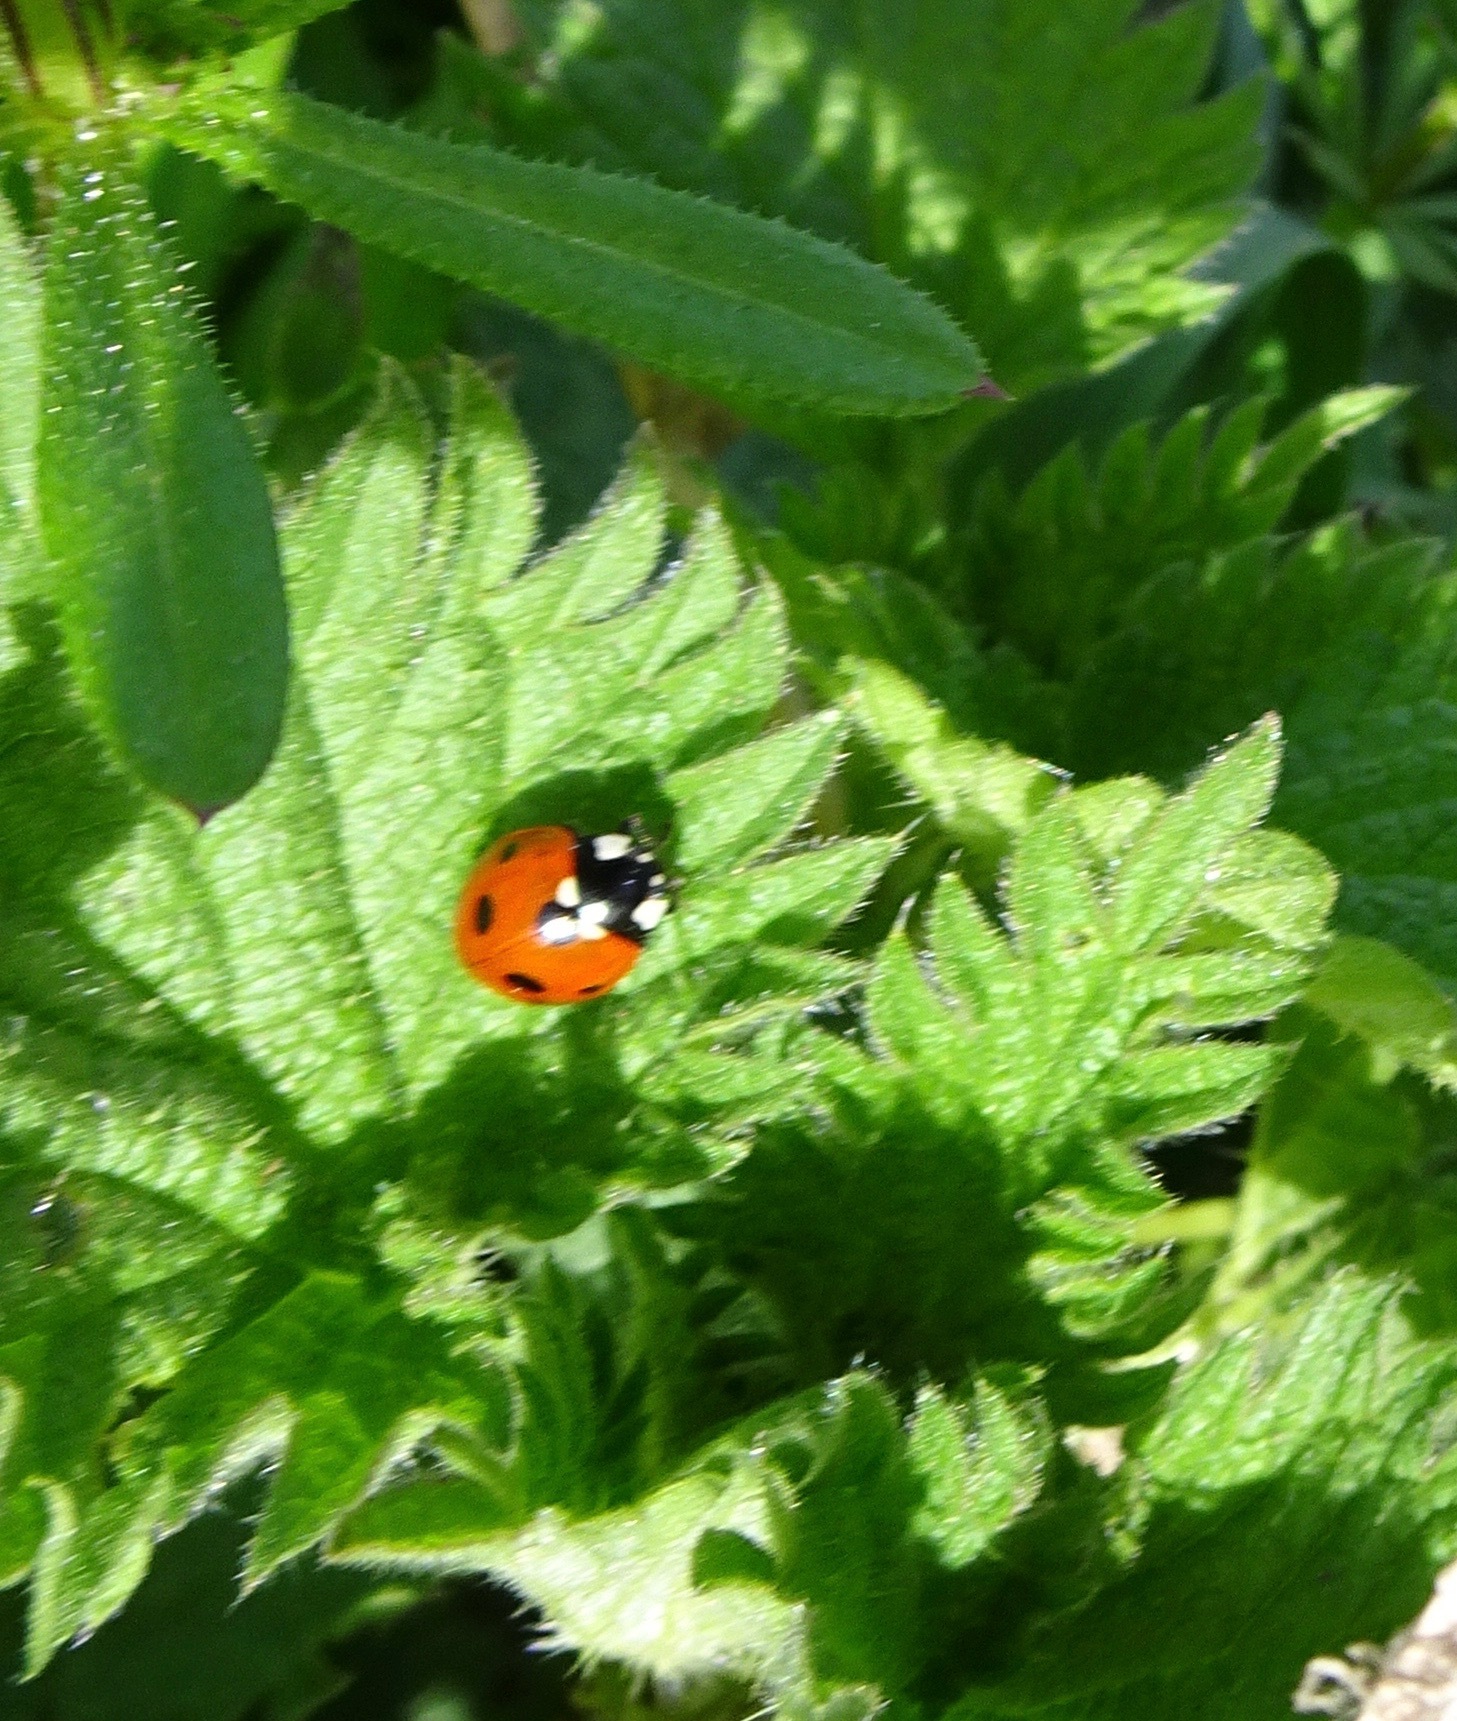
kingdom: Animalia
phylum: Arthropoda
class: Insecta
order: Coleoptera
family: Coccinellidae
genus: Coccinella
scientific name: Coccinella septempunctata
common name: Sevenspotted lady beetle
